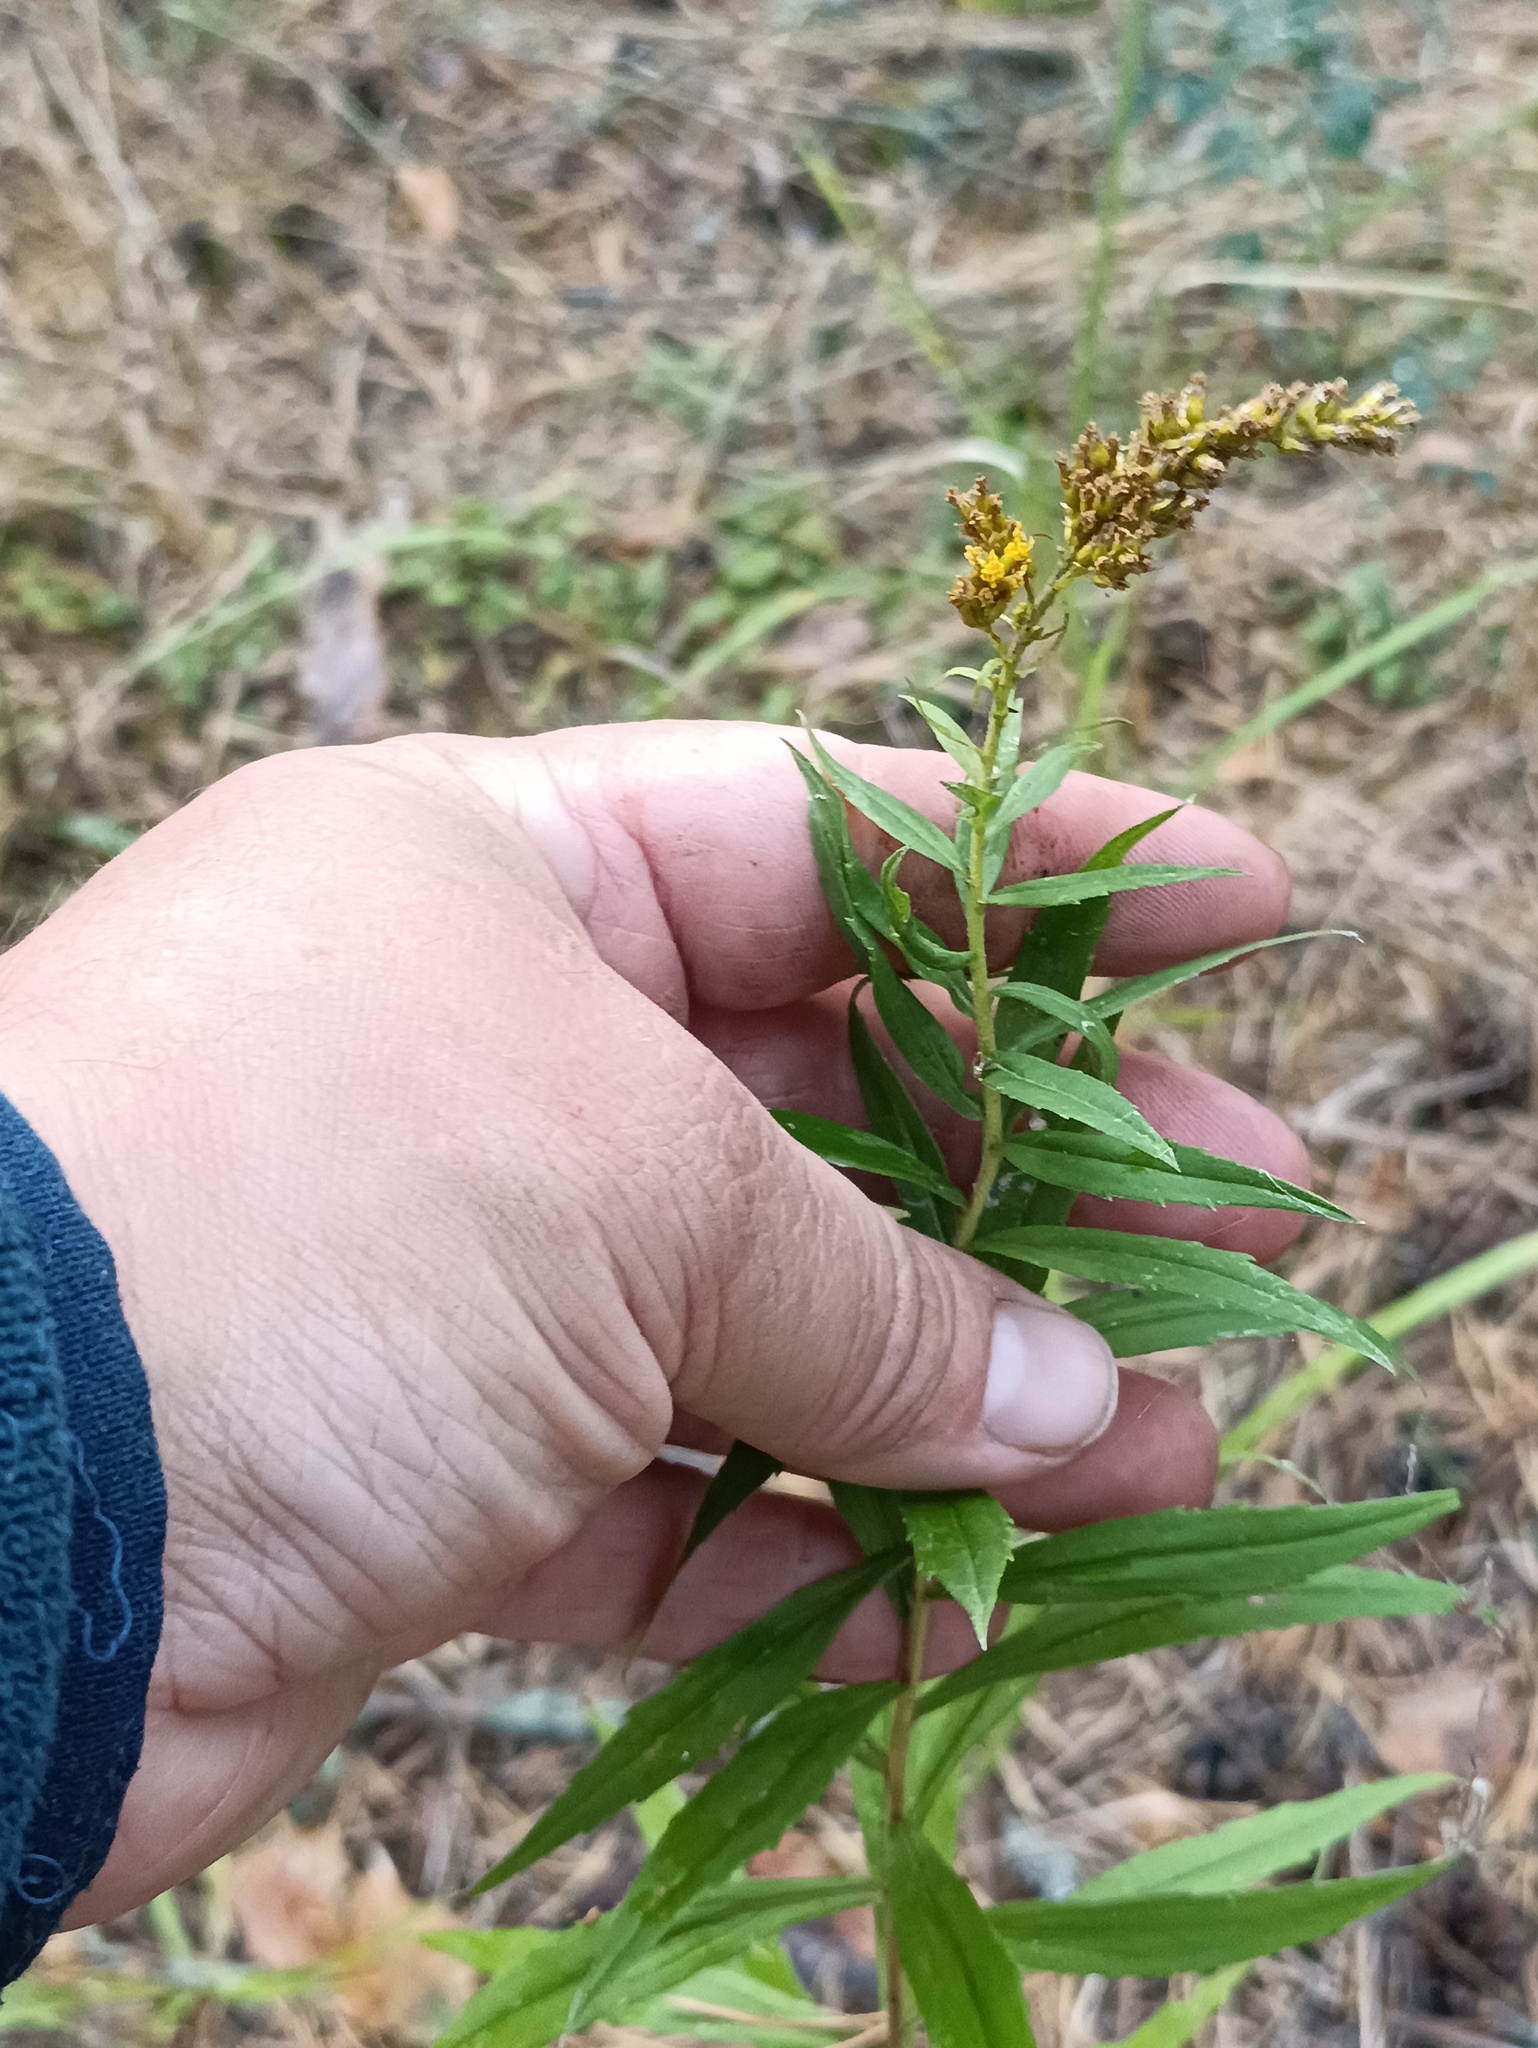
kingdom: Plantae
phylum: Tracheophyta
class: Magnoliopsida
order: Asterales
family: Asteraceae
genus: Solidago
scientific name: Solidago canadensis
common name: Canada goldenrod
